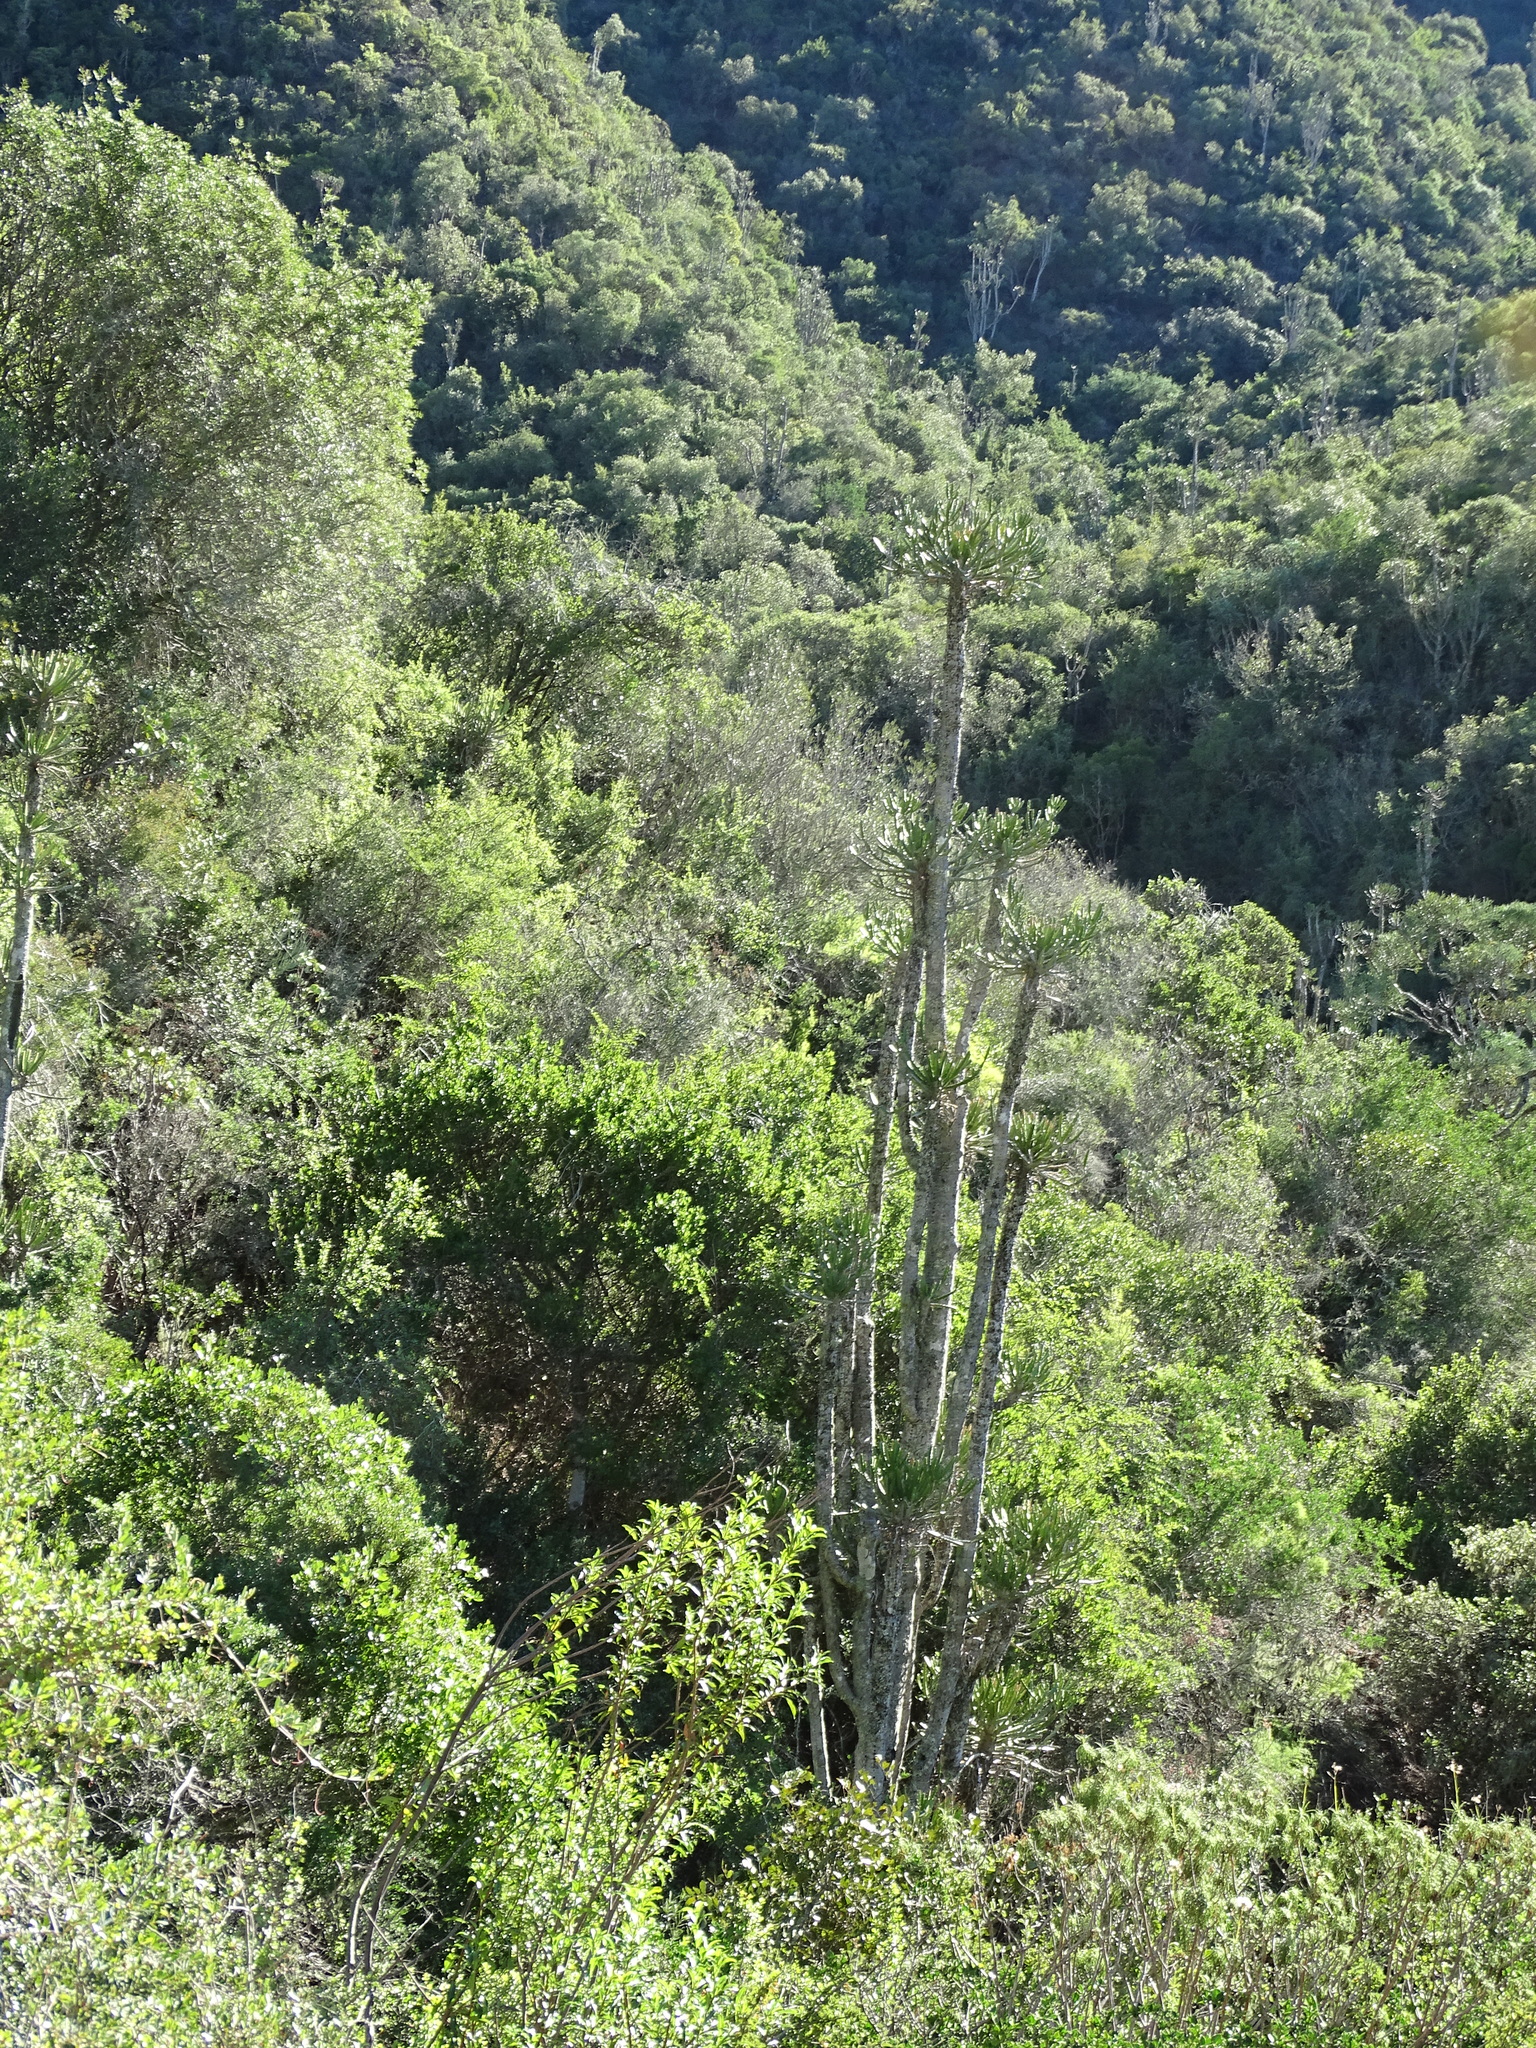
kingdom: Plantae
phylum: Tracheophyta
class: Magnoliopsida
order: Malpighiales
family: Euphorbiaceae
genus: Euphorbia
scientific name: Euphorbia grandidens
